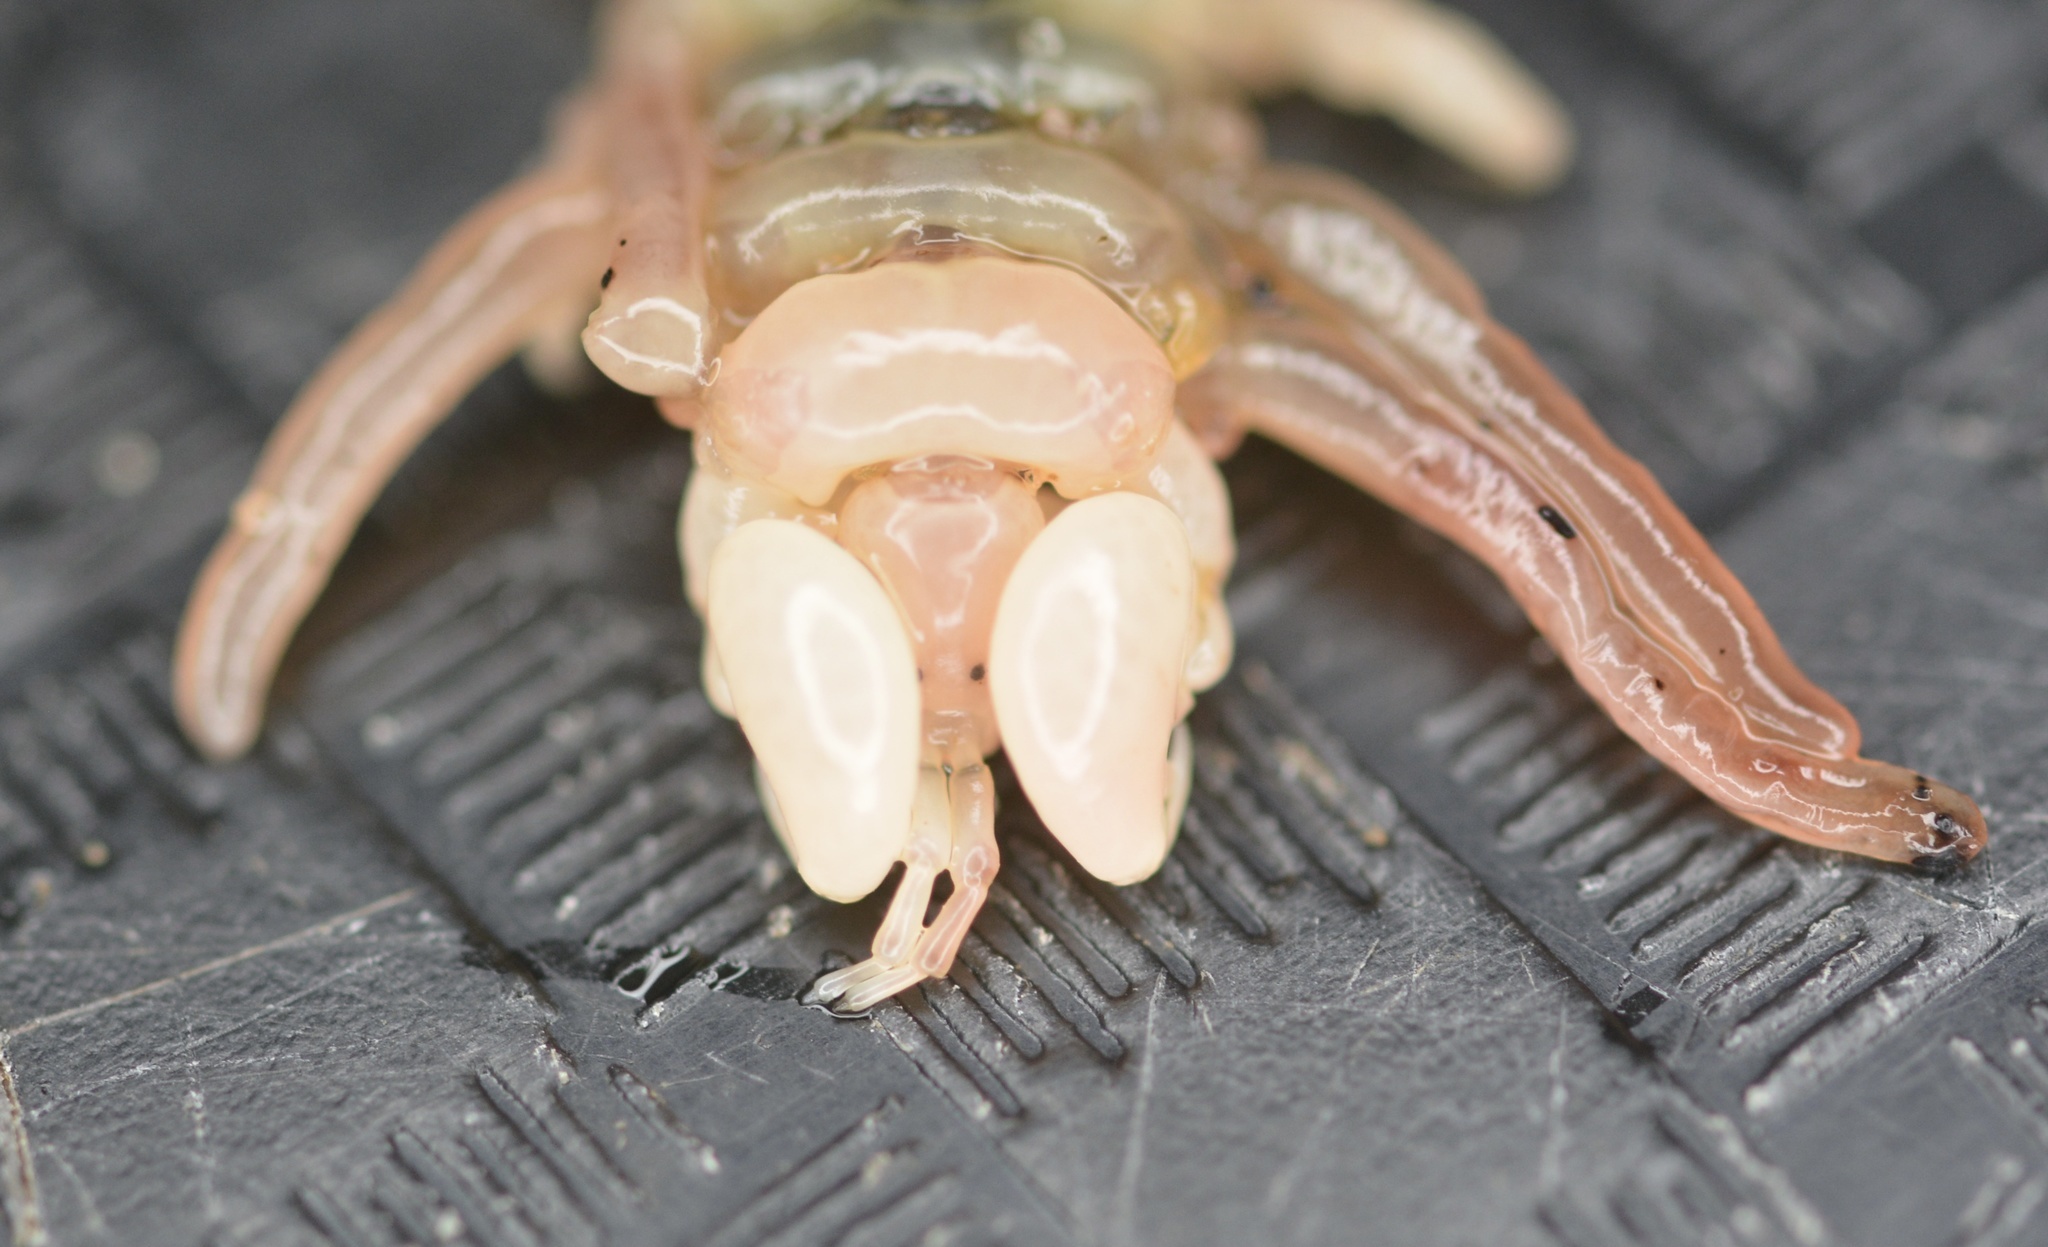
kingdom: Animalia
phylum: Arthropoda
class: Malacostraca
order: Amphipoda
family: Cyamidae
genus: Cyamus
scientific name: Cyamus kessleri
